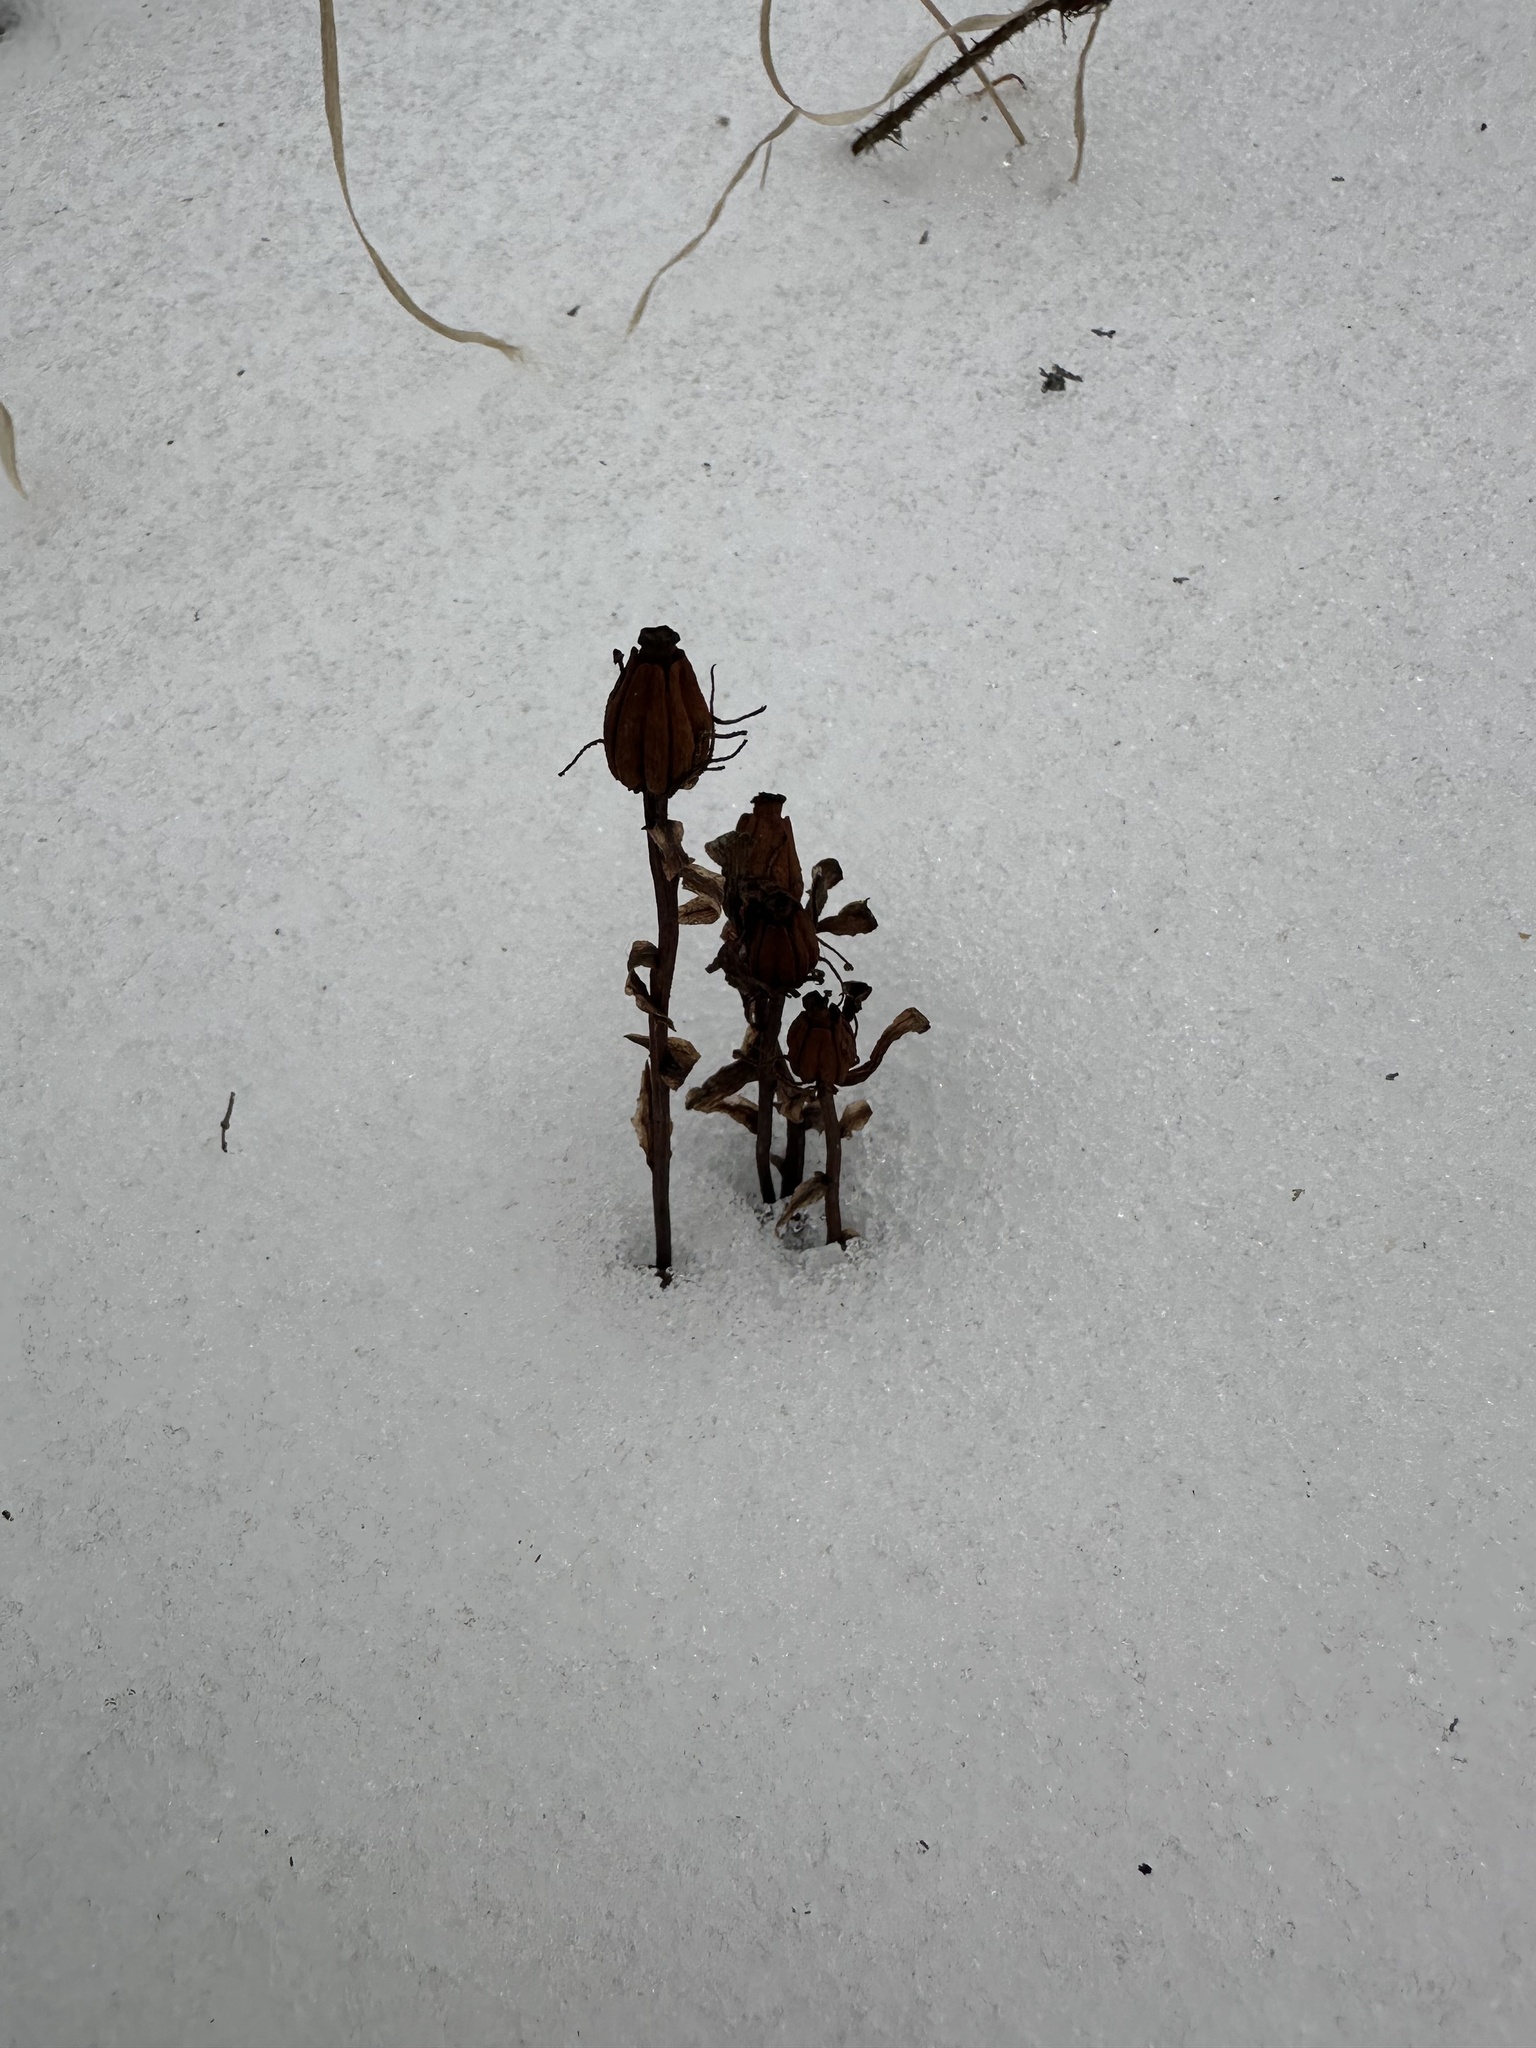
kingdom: Plantae
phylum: Tracheophyta
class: Magnoliopsida
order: Ericales
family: Ericaceae
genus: Monotropa
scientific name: Monotropa uniflora
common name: Convulsion root
